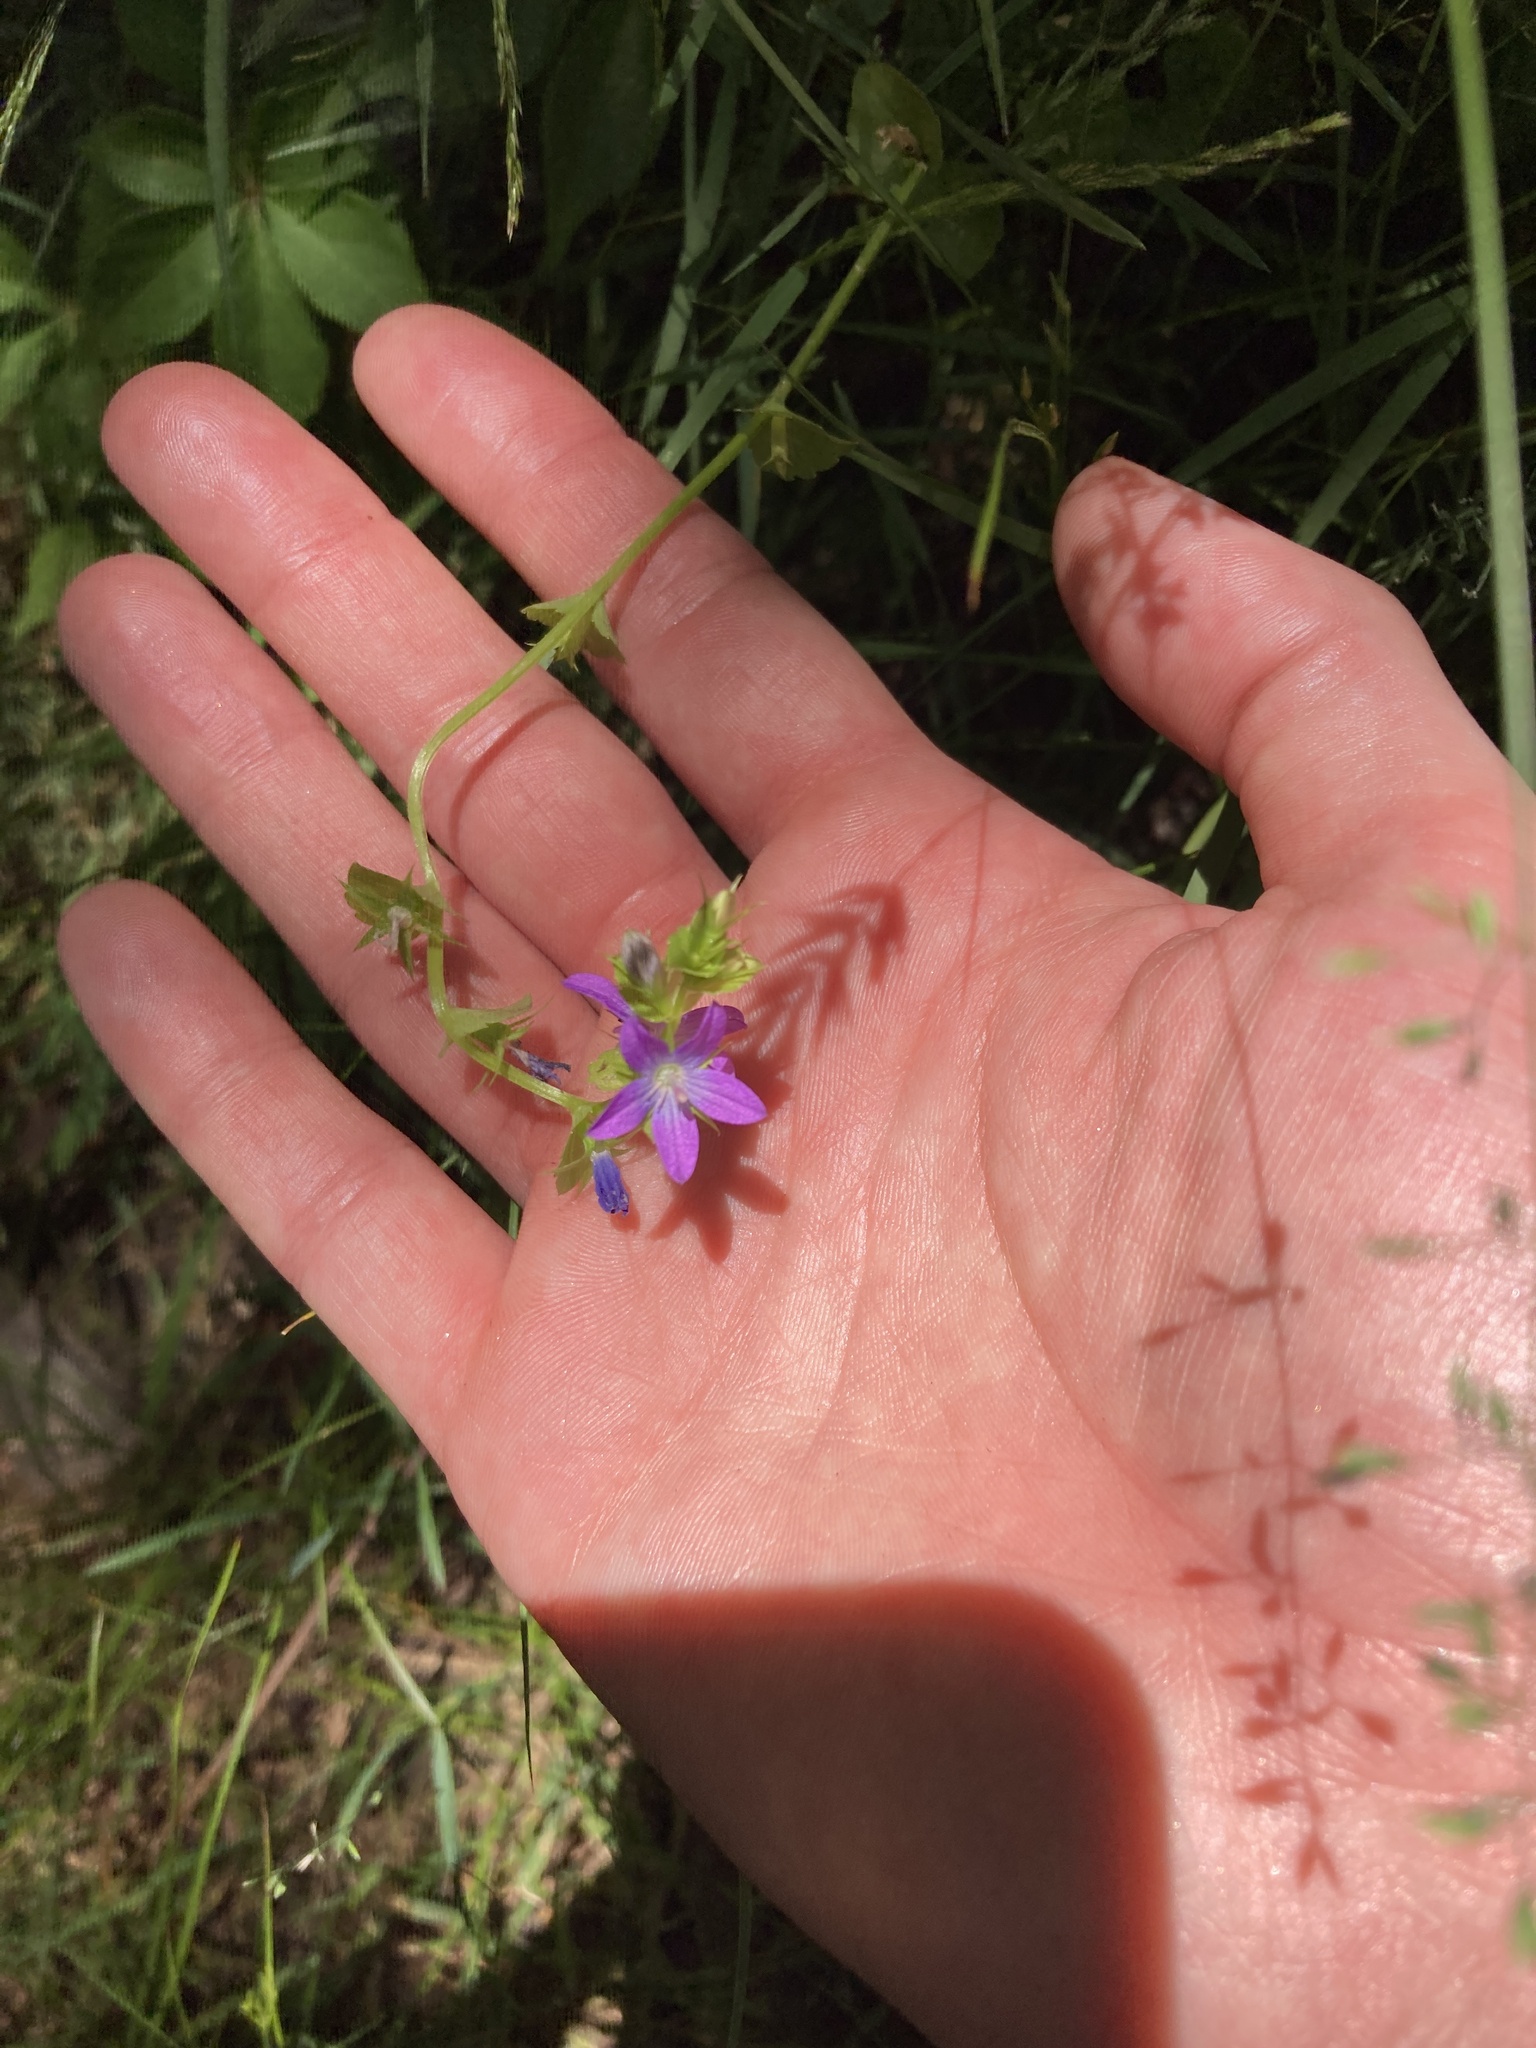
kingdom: Plantae
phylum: Tracheophyta
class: Magnoliopsida
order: Asterales
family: Campanulaceae
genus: Triodanis
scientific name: Triodanis perfoliata
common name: Clasping venus' looking-glass
